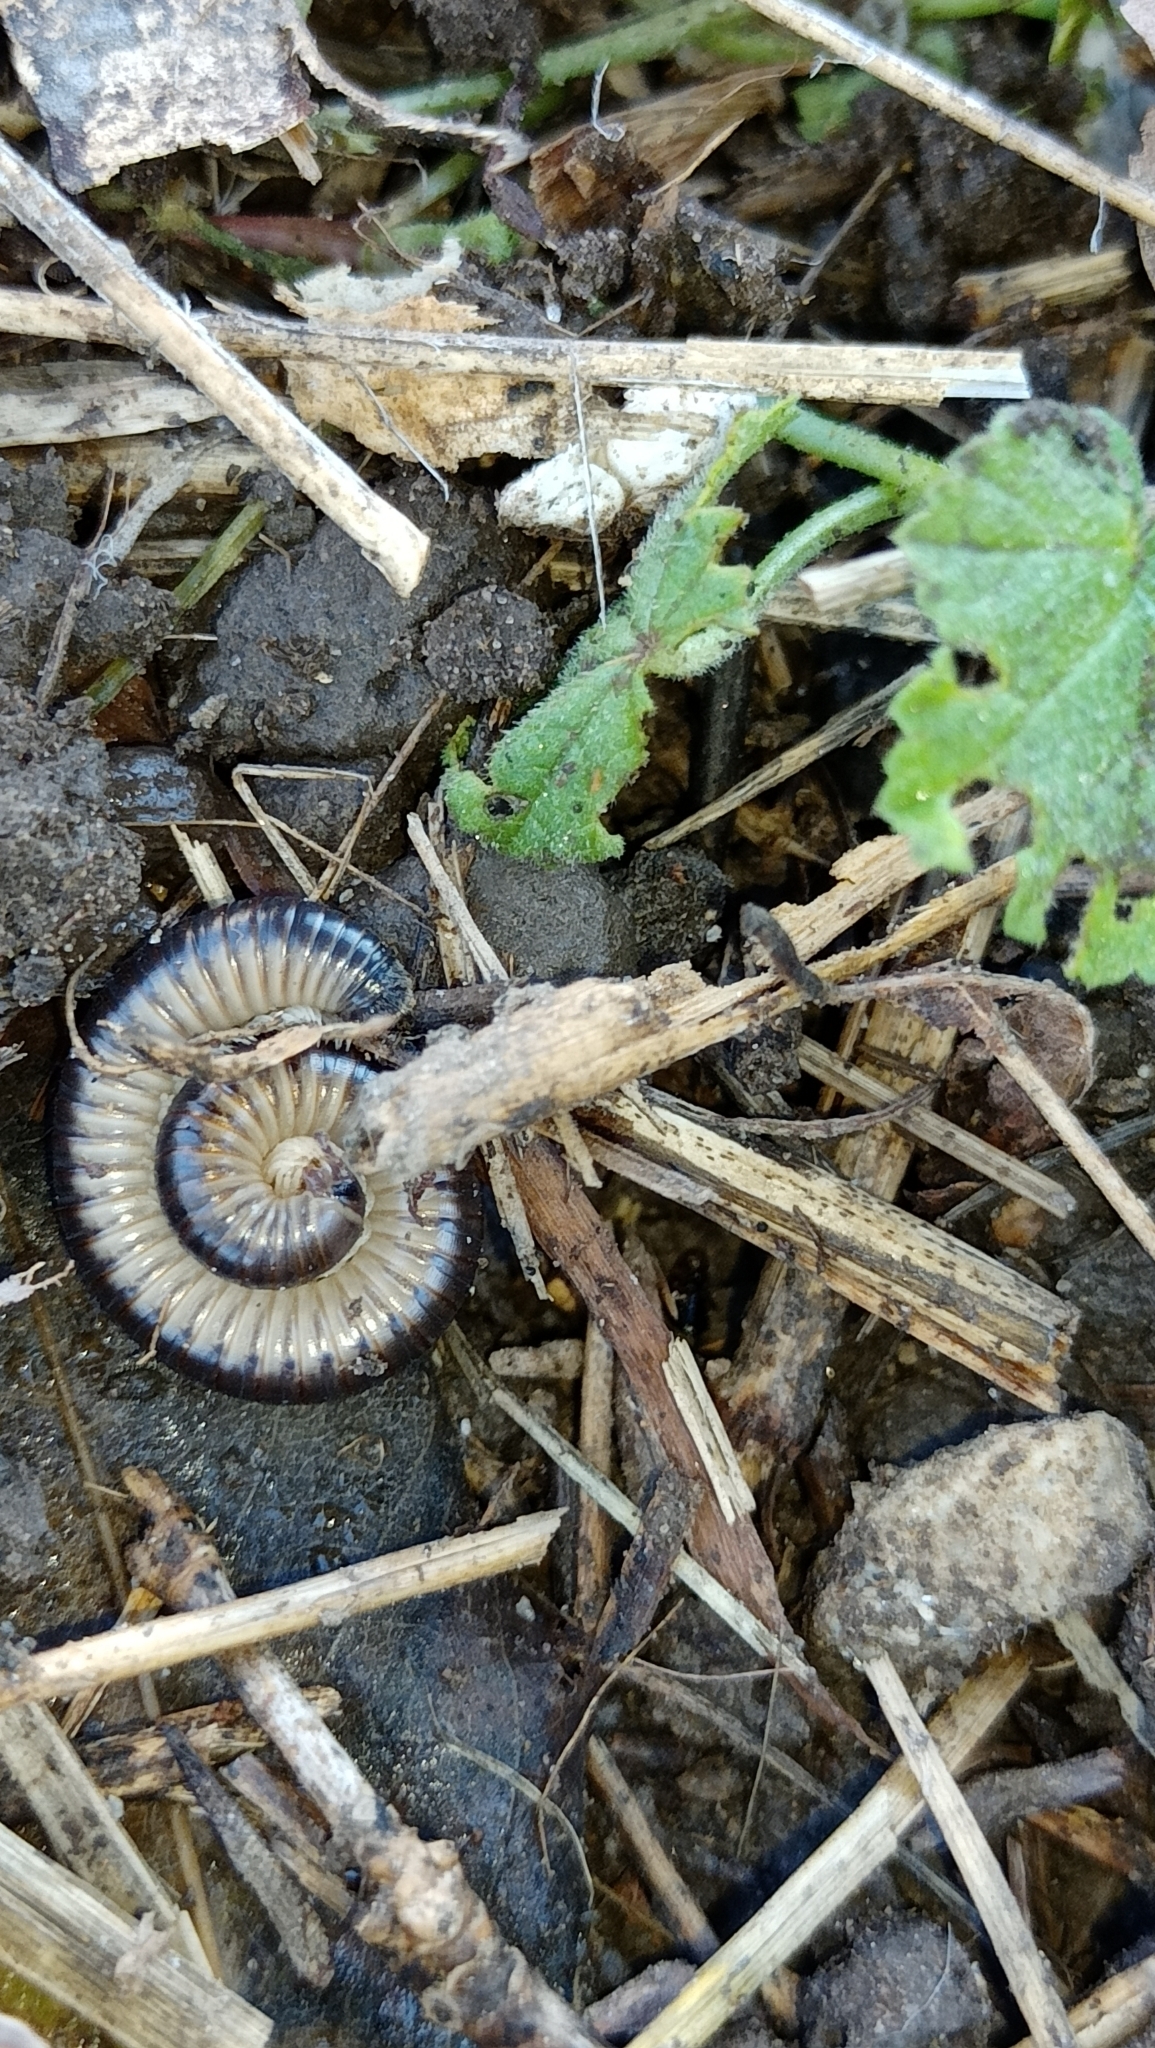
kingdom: Animalia
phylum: Arthropoda
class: Diplopoda
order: Julida
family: Julidae
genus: Pachyiulus
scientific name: Pachyiulus flavipes
